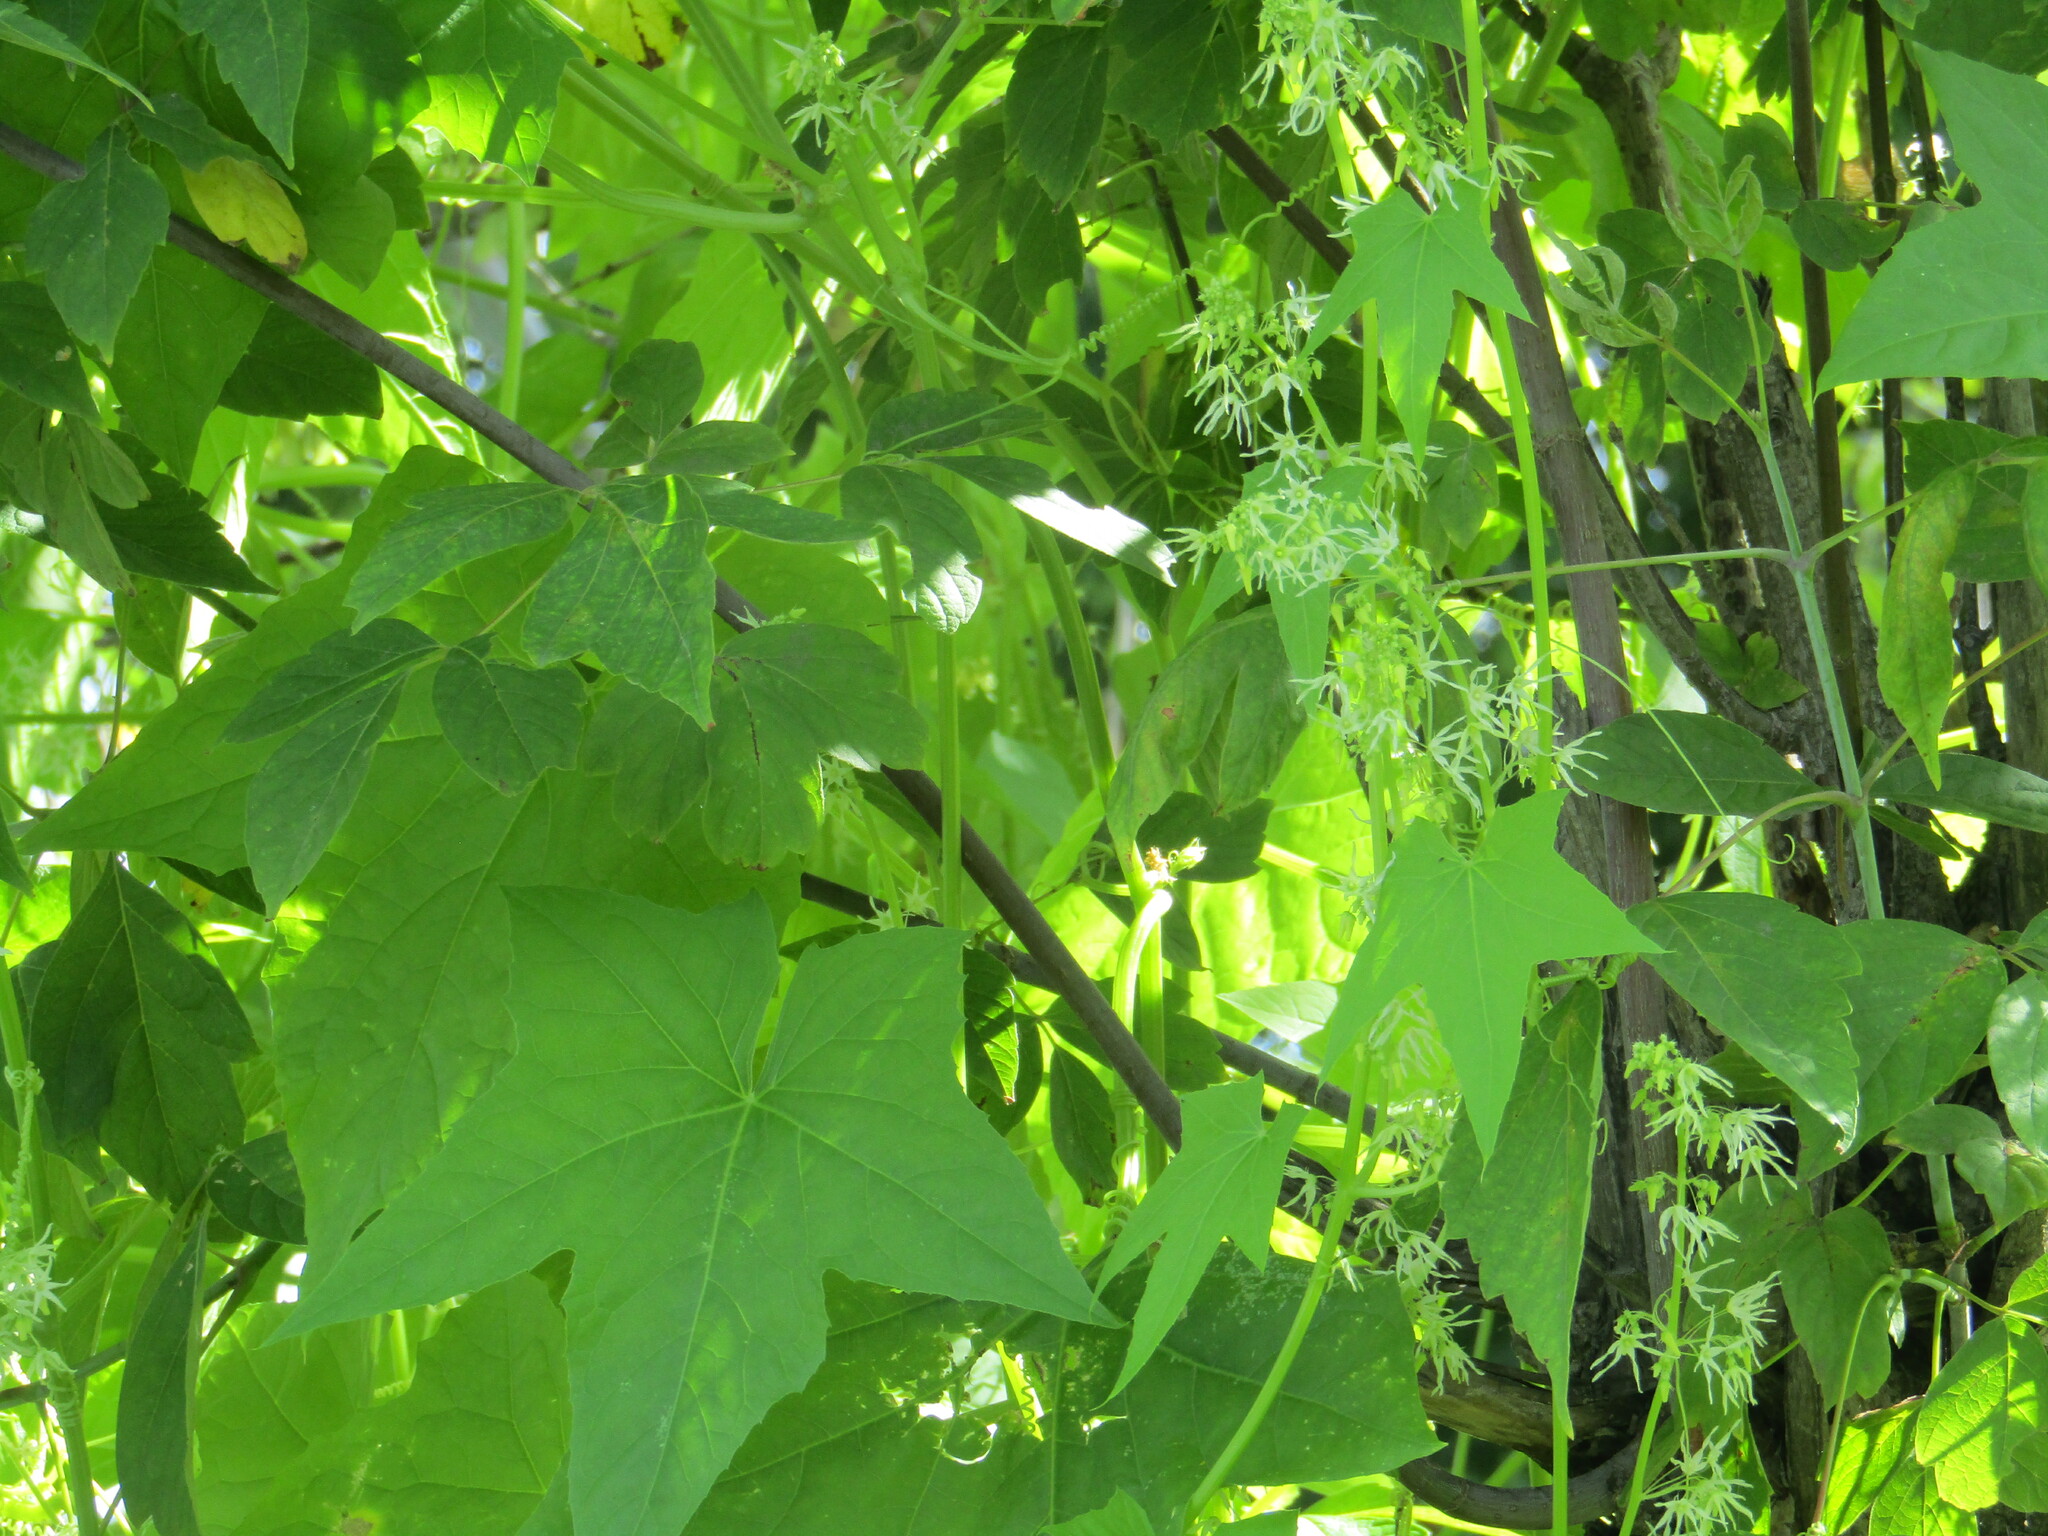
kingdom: Plantae
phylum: Tracheophyta
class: Magnoliopsida
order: Cucurbitales
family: Cucurbitaceae
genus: Echinocystis
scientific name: Echinocystis lobata
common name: Wild cucumber
